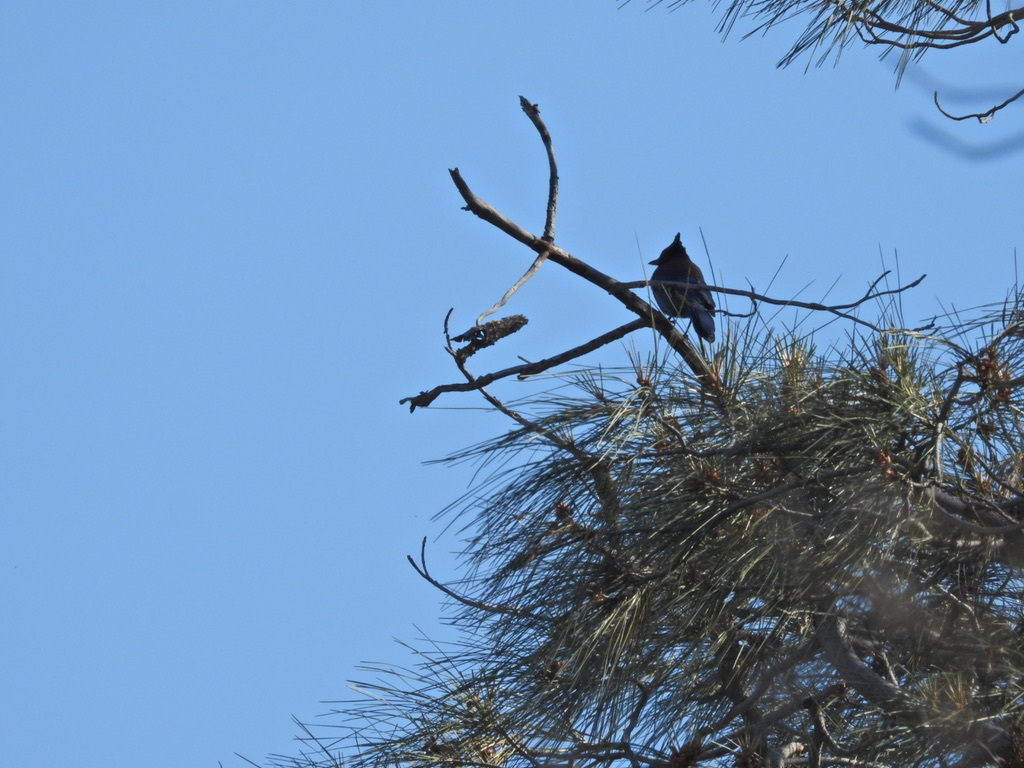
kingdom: Animalia
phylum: Chordata
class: Aves
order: Passeriformes
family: Corvidae
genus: Cyanocitta
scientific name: Cyanocitta stelleri
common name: Steller's jay
